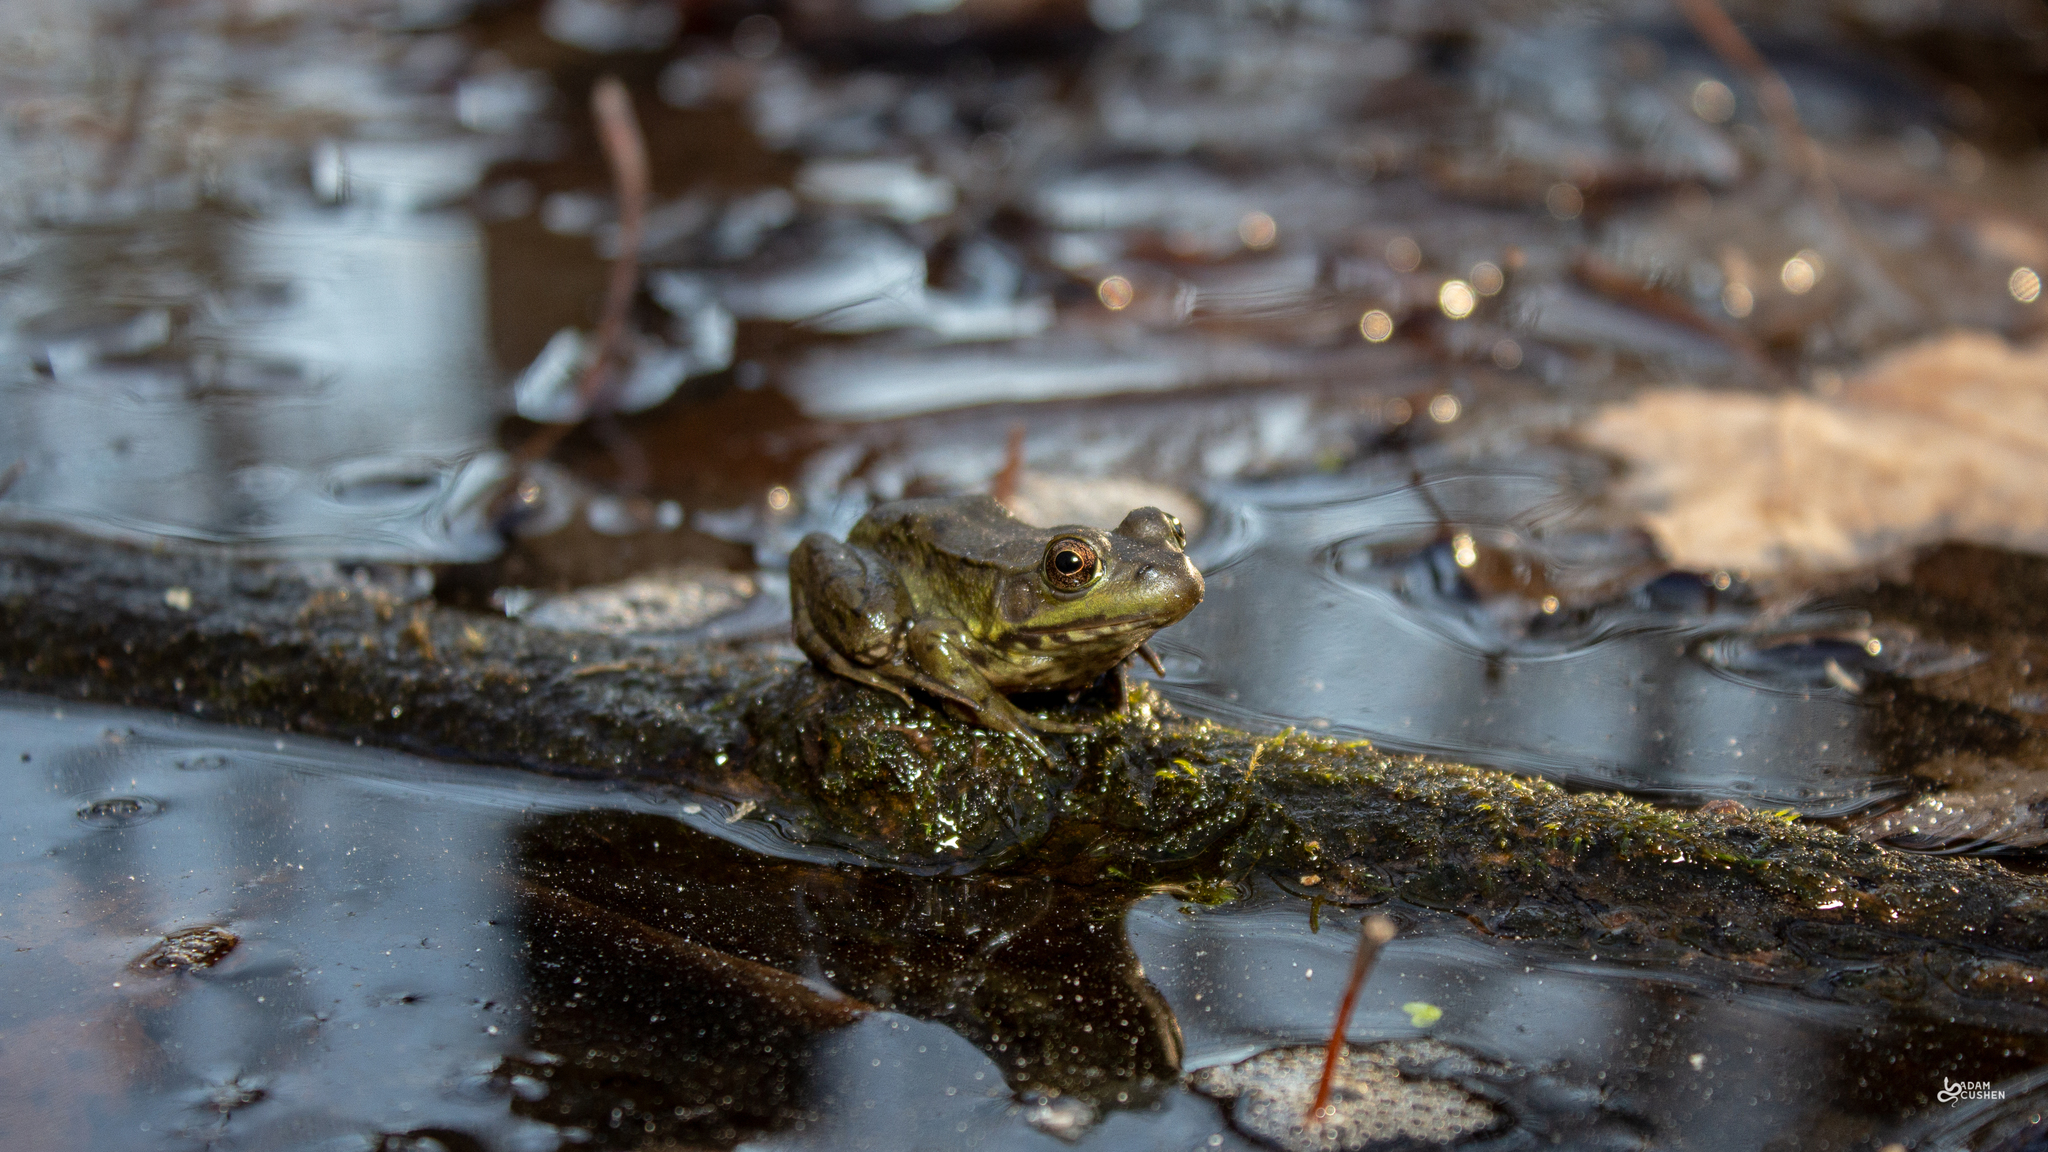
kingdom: Animalia
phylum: Chordata
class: Amphibia
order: Anura
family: Ranidae
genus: Lithobates
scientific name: Lithobates clamitans
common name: Green frog
